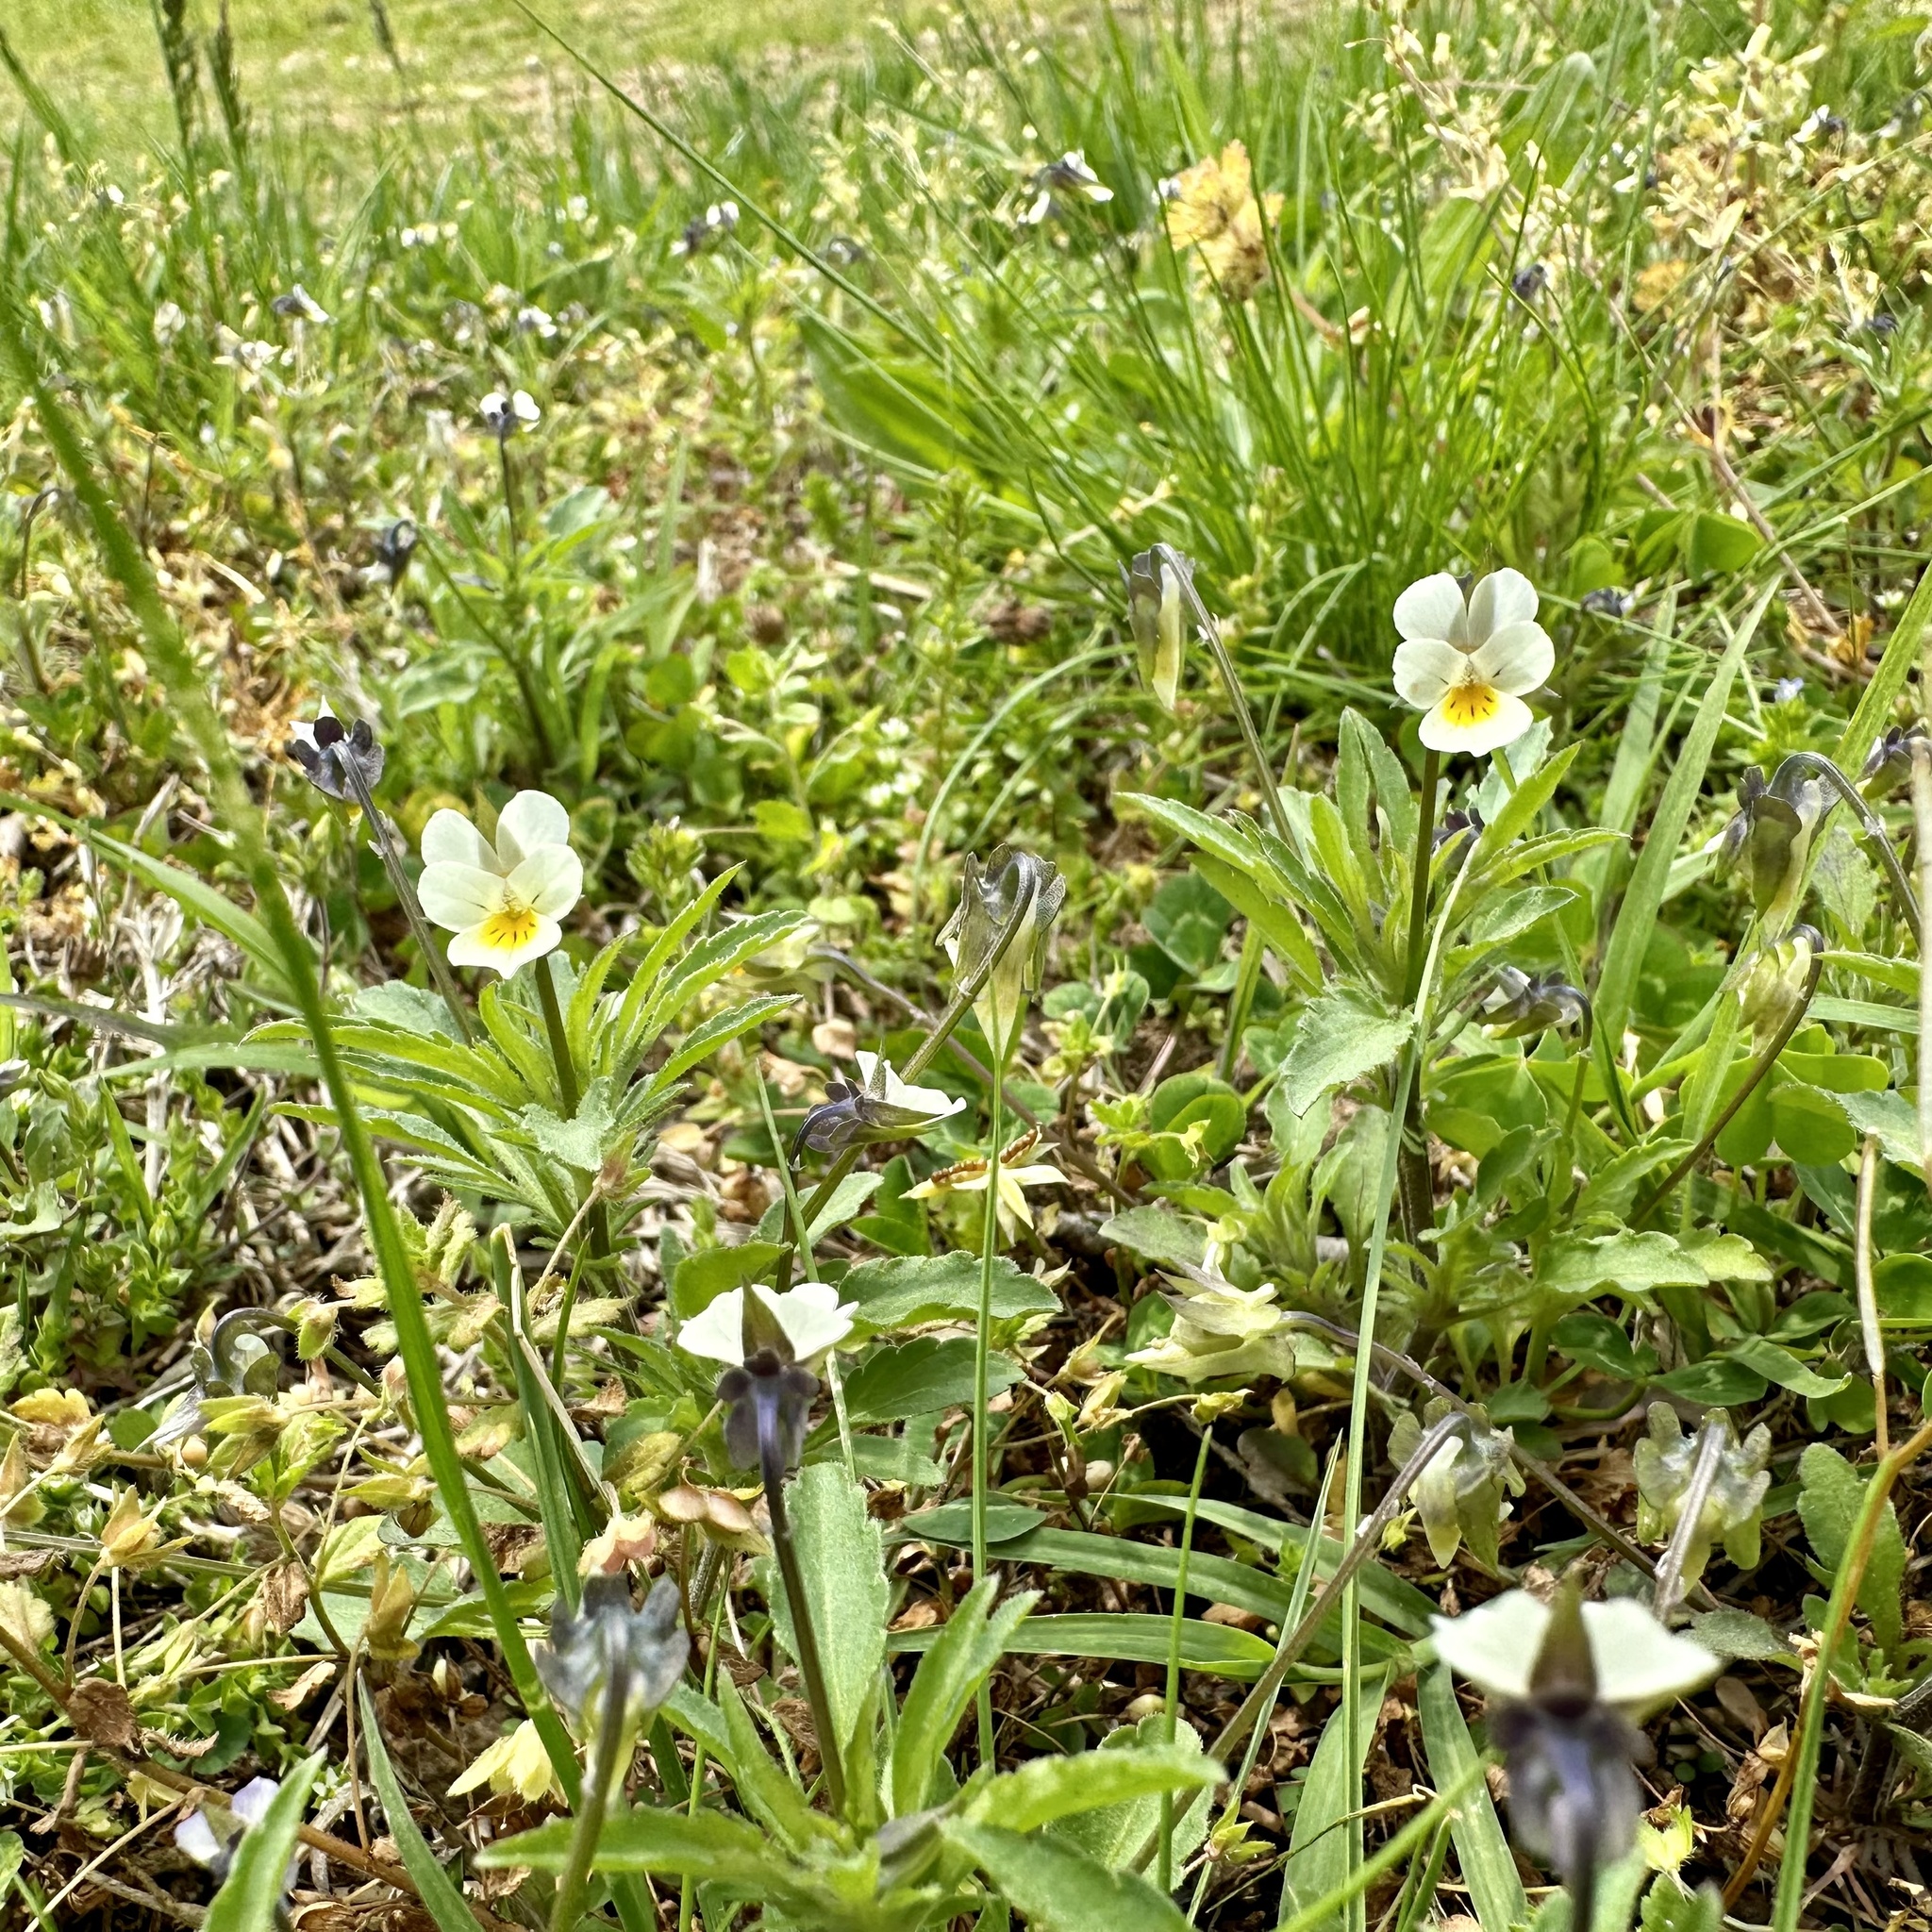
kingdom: Plantae
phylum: Tracheophyta
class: Magnoliopsida
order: Malpighiales
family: Violaceae
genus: Viola
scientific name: Viola arvensis
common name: Field pansy
